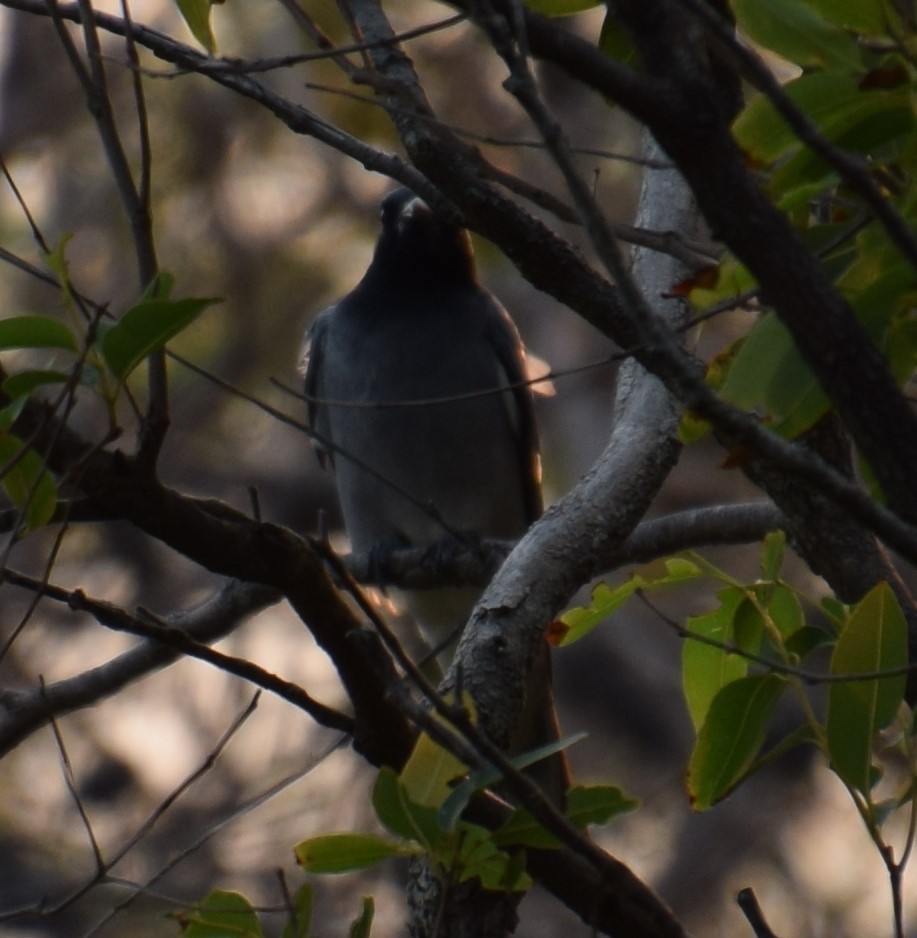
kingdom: Animalia
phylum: Chordata
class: Aves
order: Passeriformes
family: Campephagidae
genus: Coracina
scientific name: Coracina novaehollandiae
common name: Black-faced cuckooshrike
